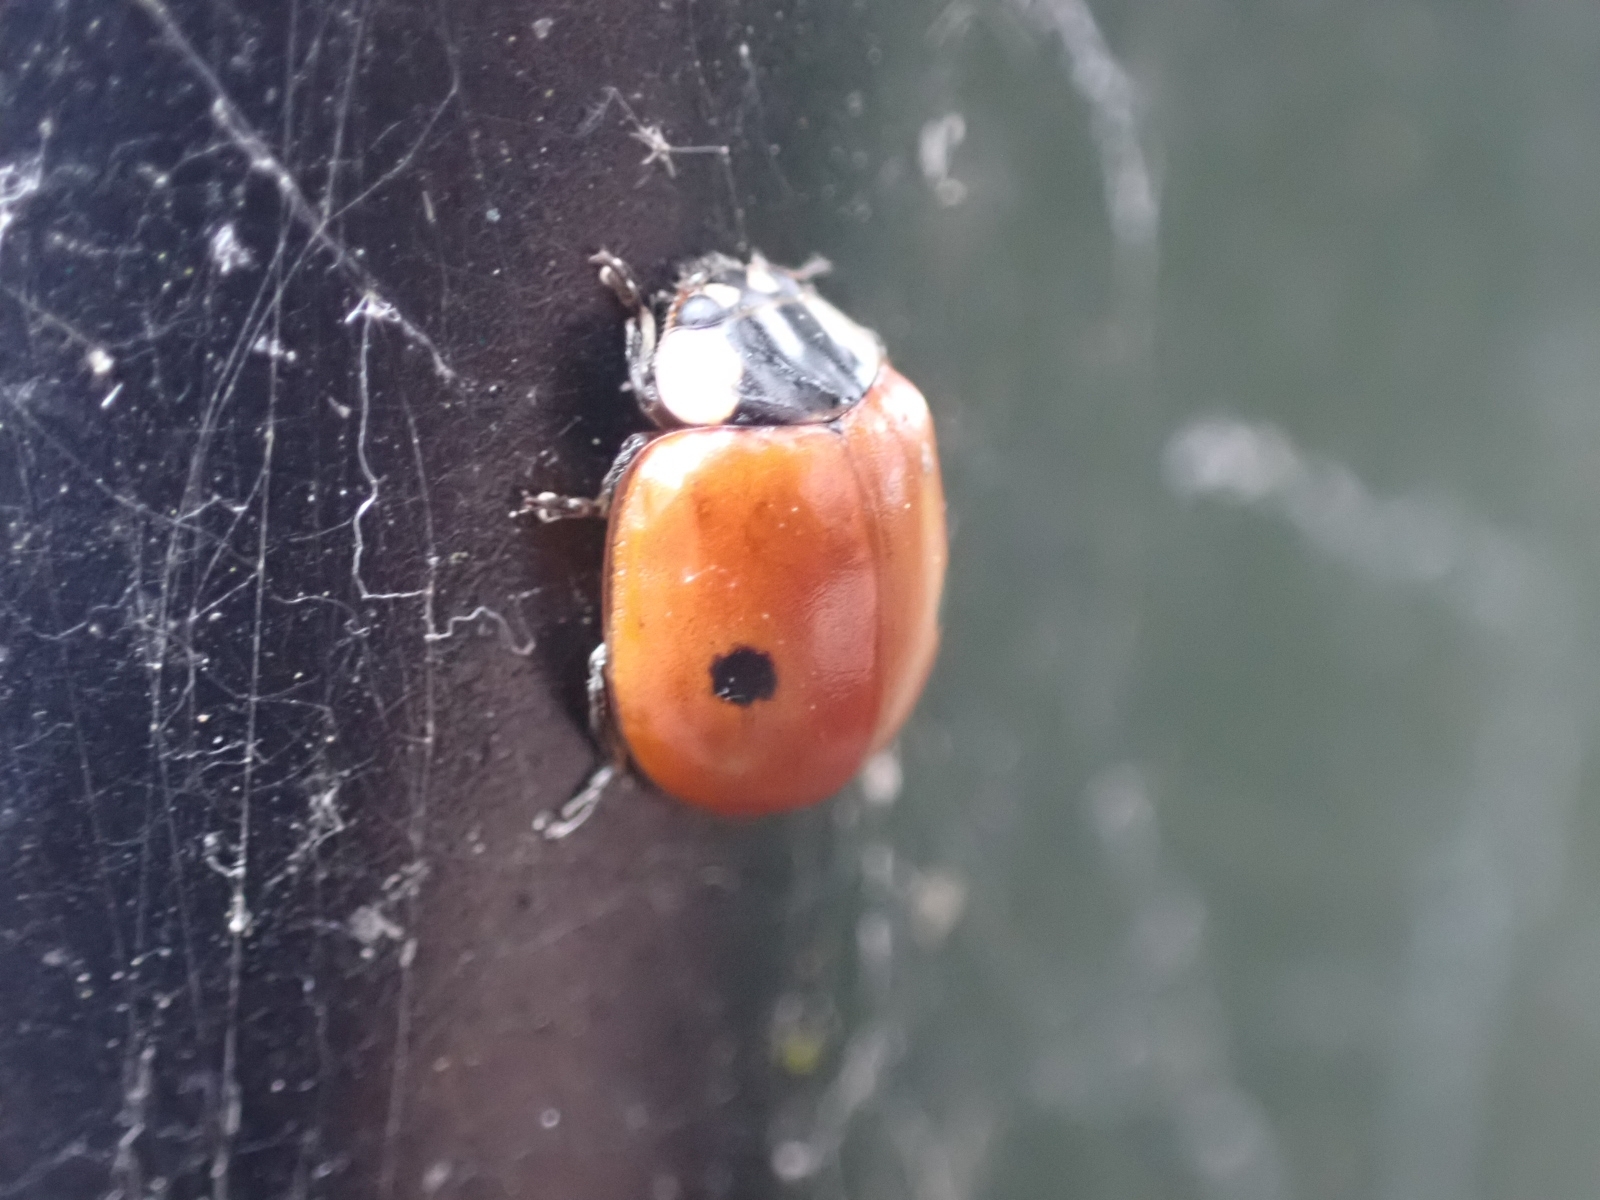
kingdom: Animalia
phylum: Arthropoda
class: Insecta
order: Coleoptera
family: Coccinellidae
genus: Adalia
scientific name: Adalia bipunctata
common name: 2-spot ladybird
